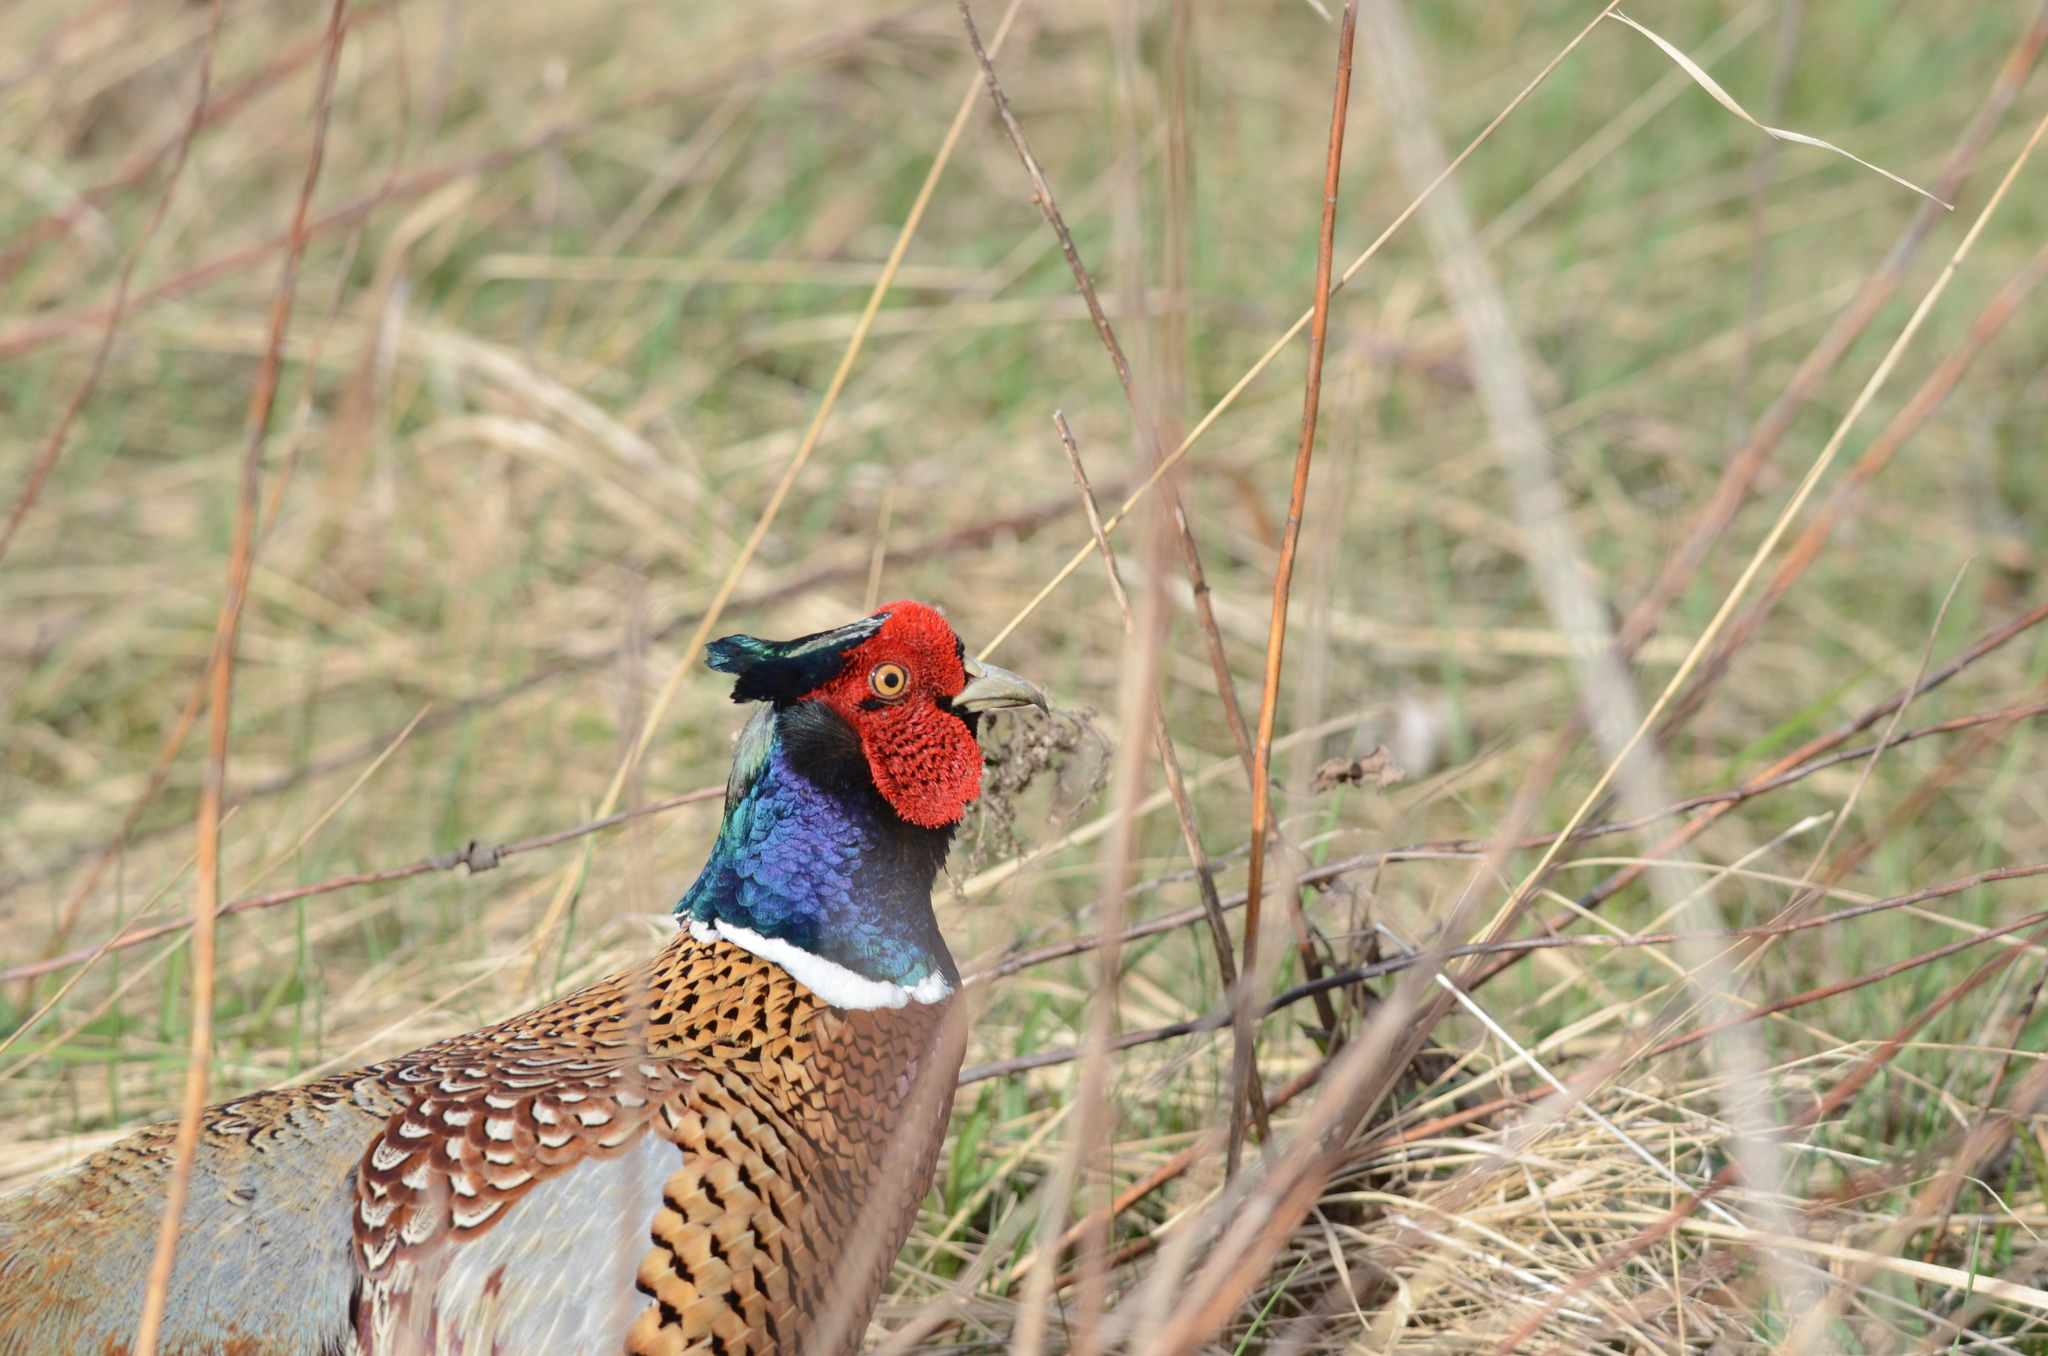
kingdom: Animalia
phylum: Chordata
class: Aves
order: Galliformes
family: Phasianidae
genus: Phasianus
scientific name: Phasianus colchicus
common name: Common pheasant
